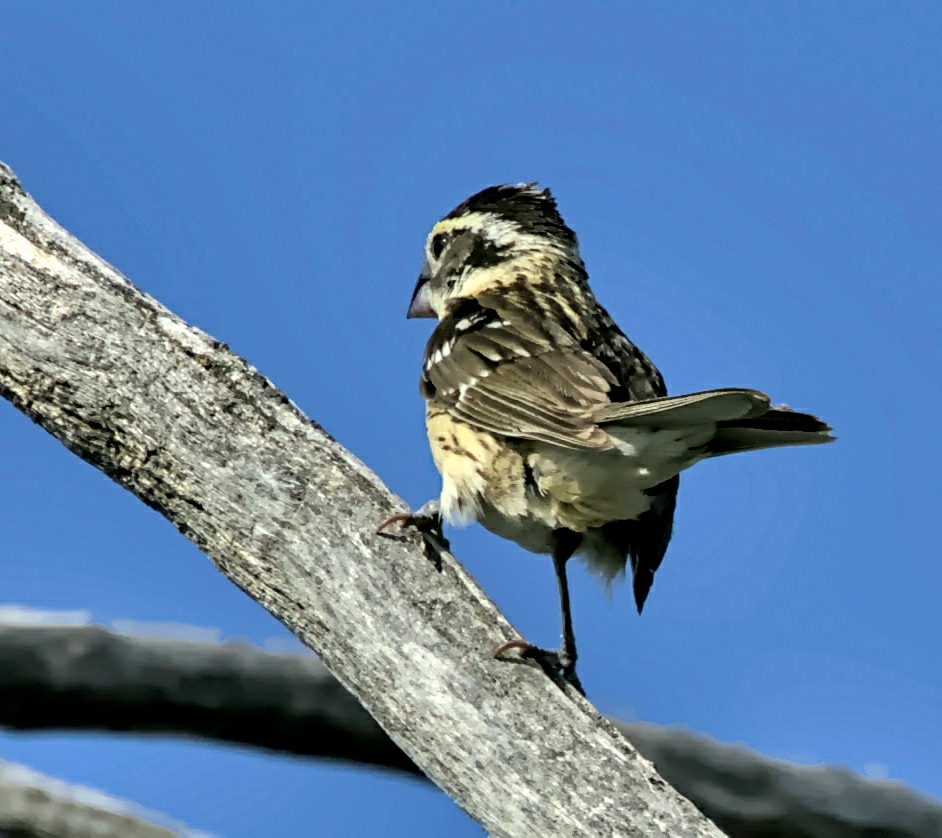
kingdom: Animalia
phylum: Chordata
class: Aves
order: Passeriformes
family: Cardinalidae
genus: Pheucticus
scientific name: Pheucticus melanocephalus
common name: Black-headed grosbeak
